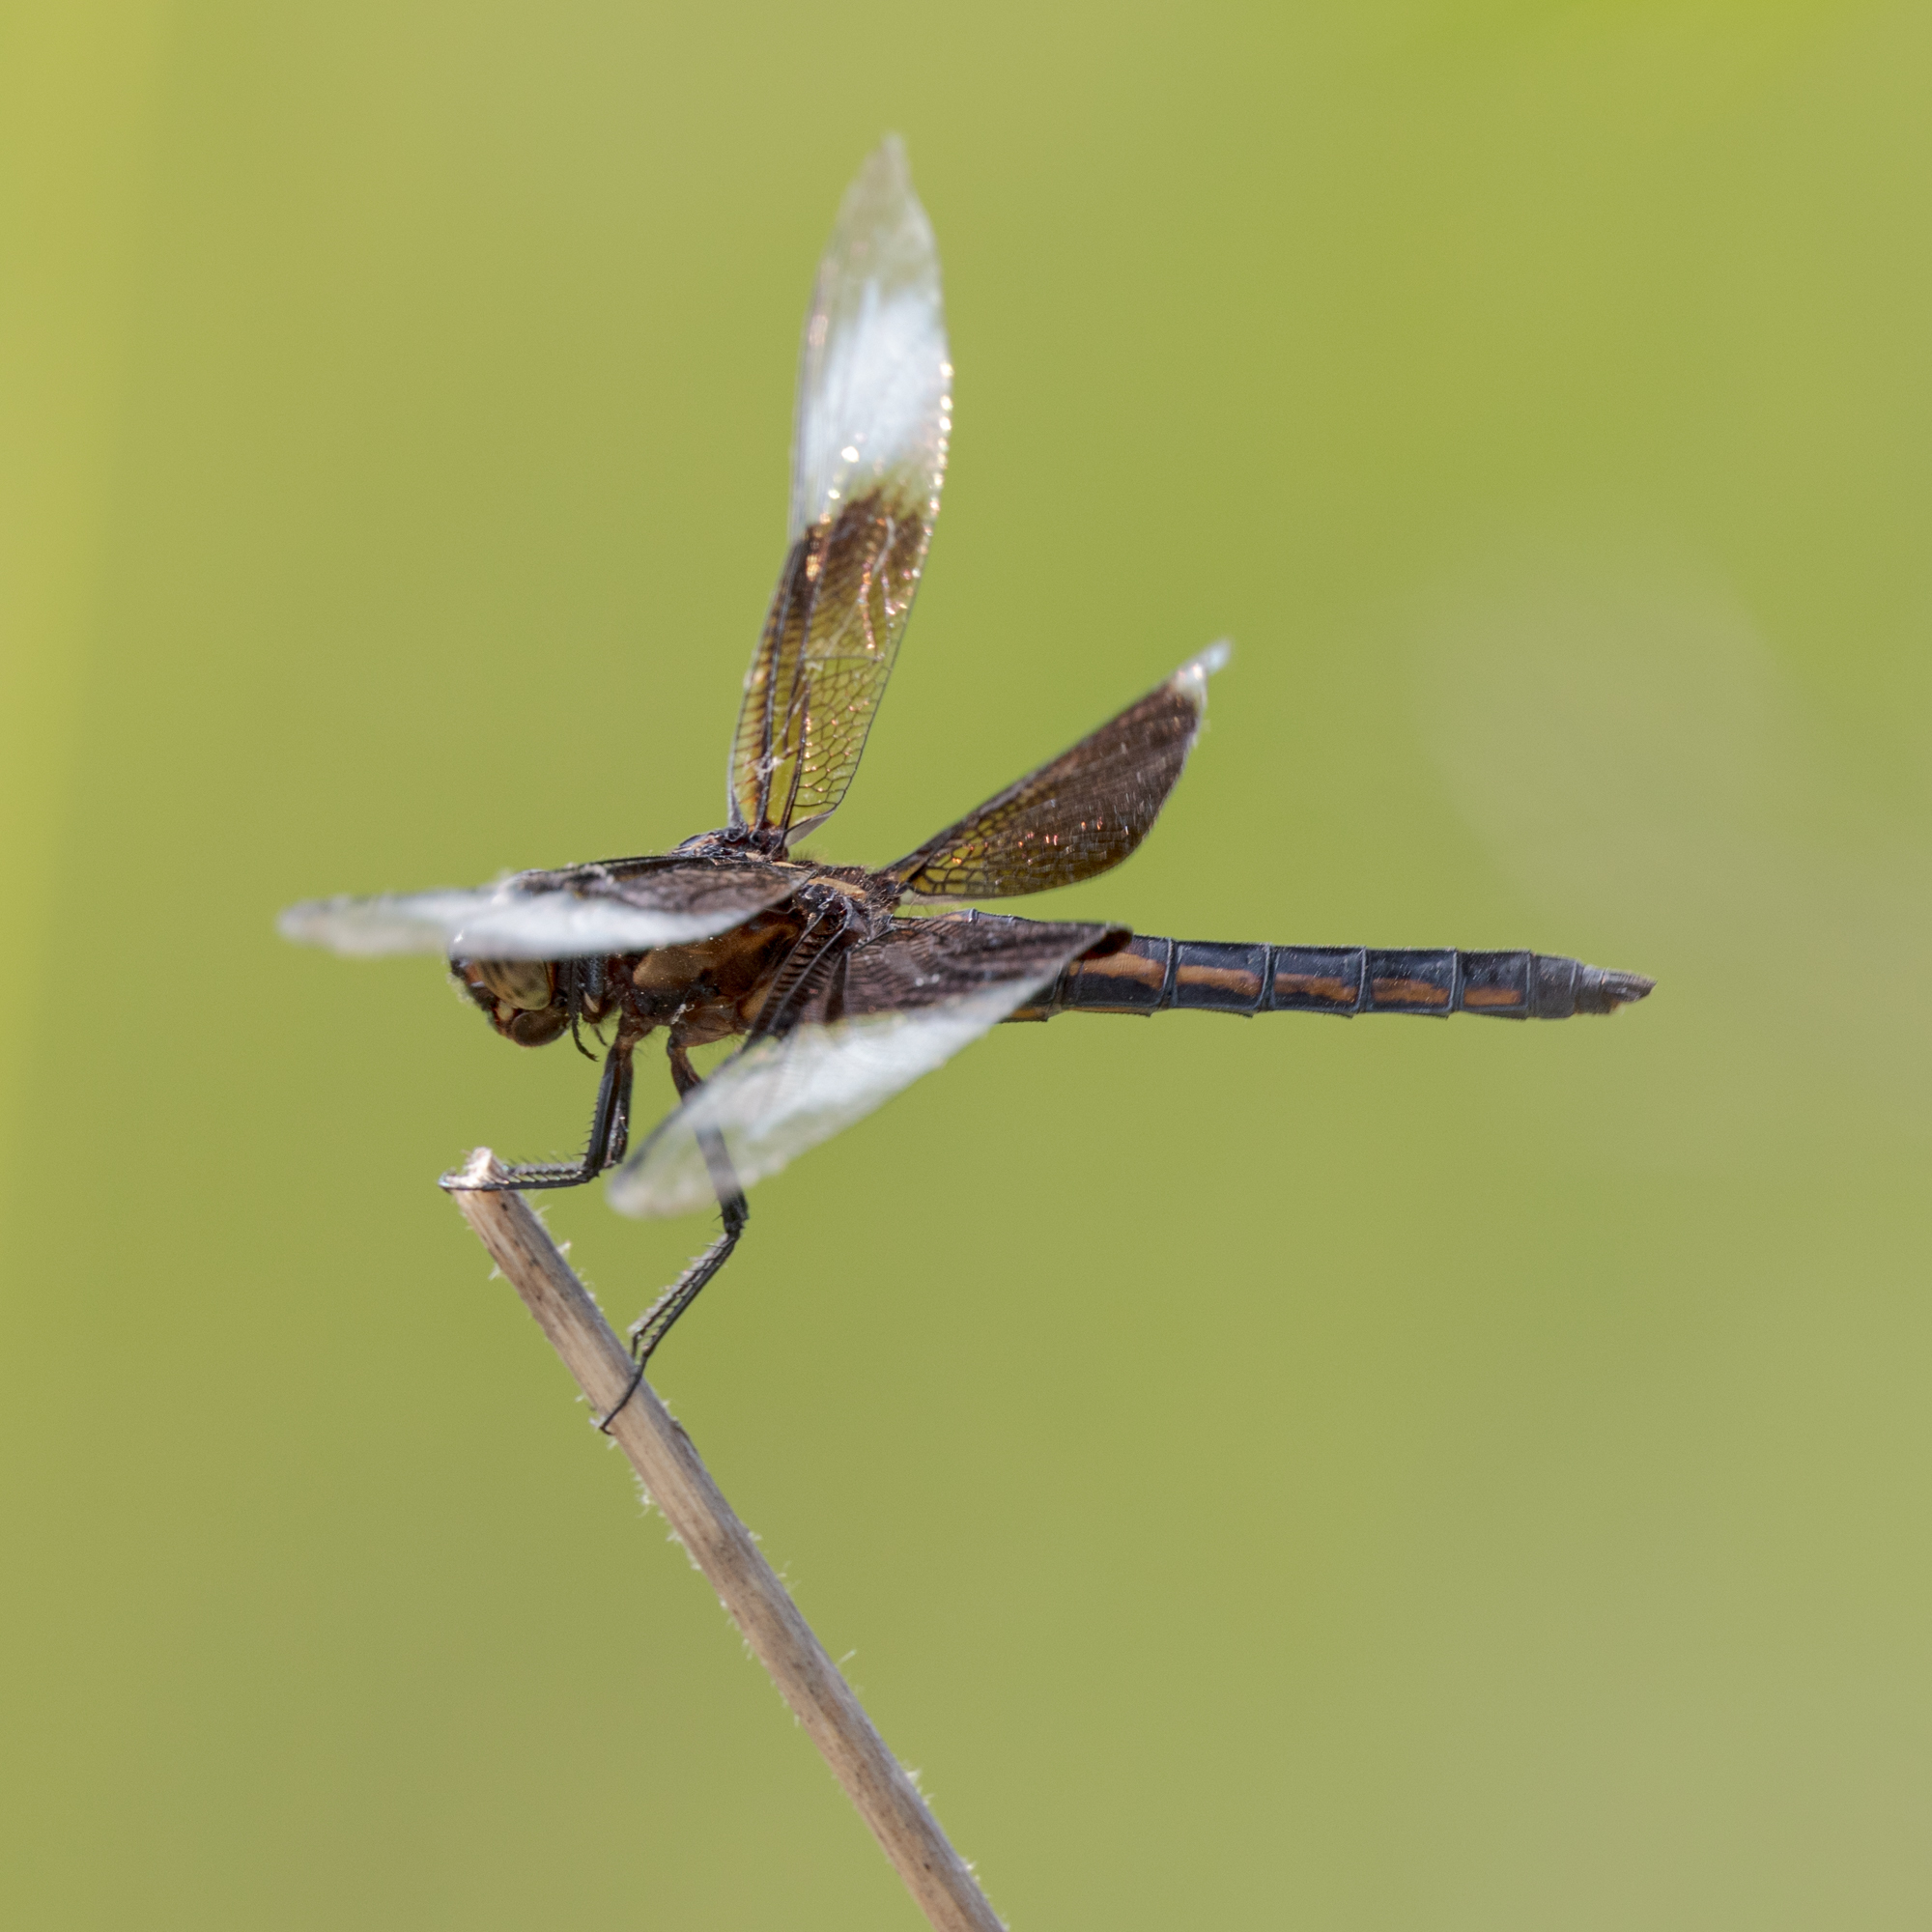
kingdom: Animalia
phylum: Arthropoda
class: Insecta
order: Odonata
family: Libellulidae
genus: Libellula
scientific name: Libellula luctuosa
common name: Widow skimmer
